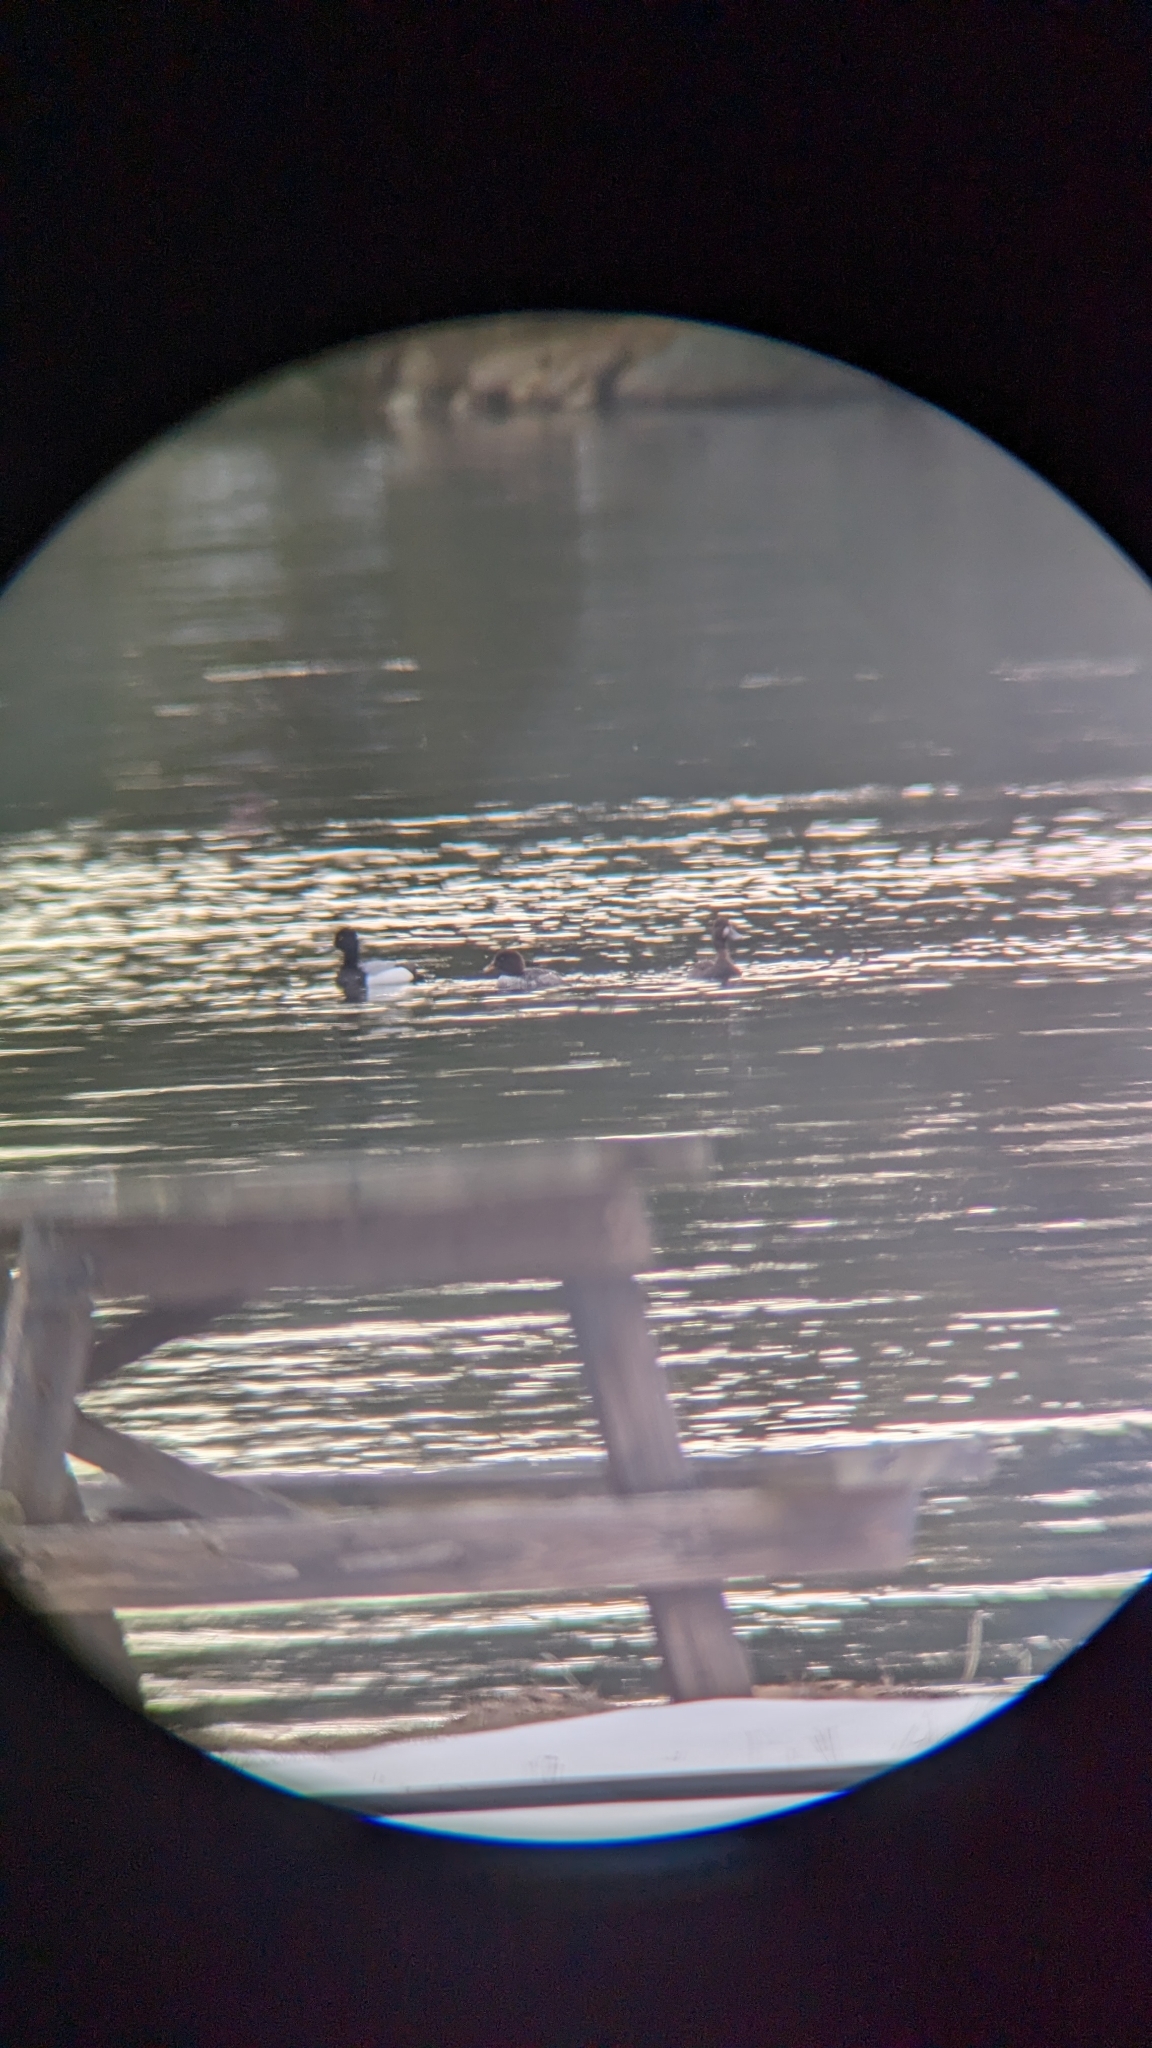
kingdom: Animalia
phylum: Chordata
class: Aves
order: Anseriformes
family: Anatidae
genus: Bucephala
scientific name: Bucephala clangula
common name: Common goldeneye
